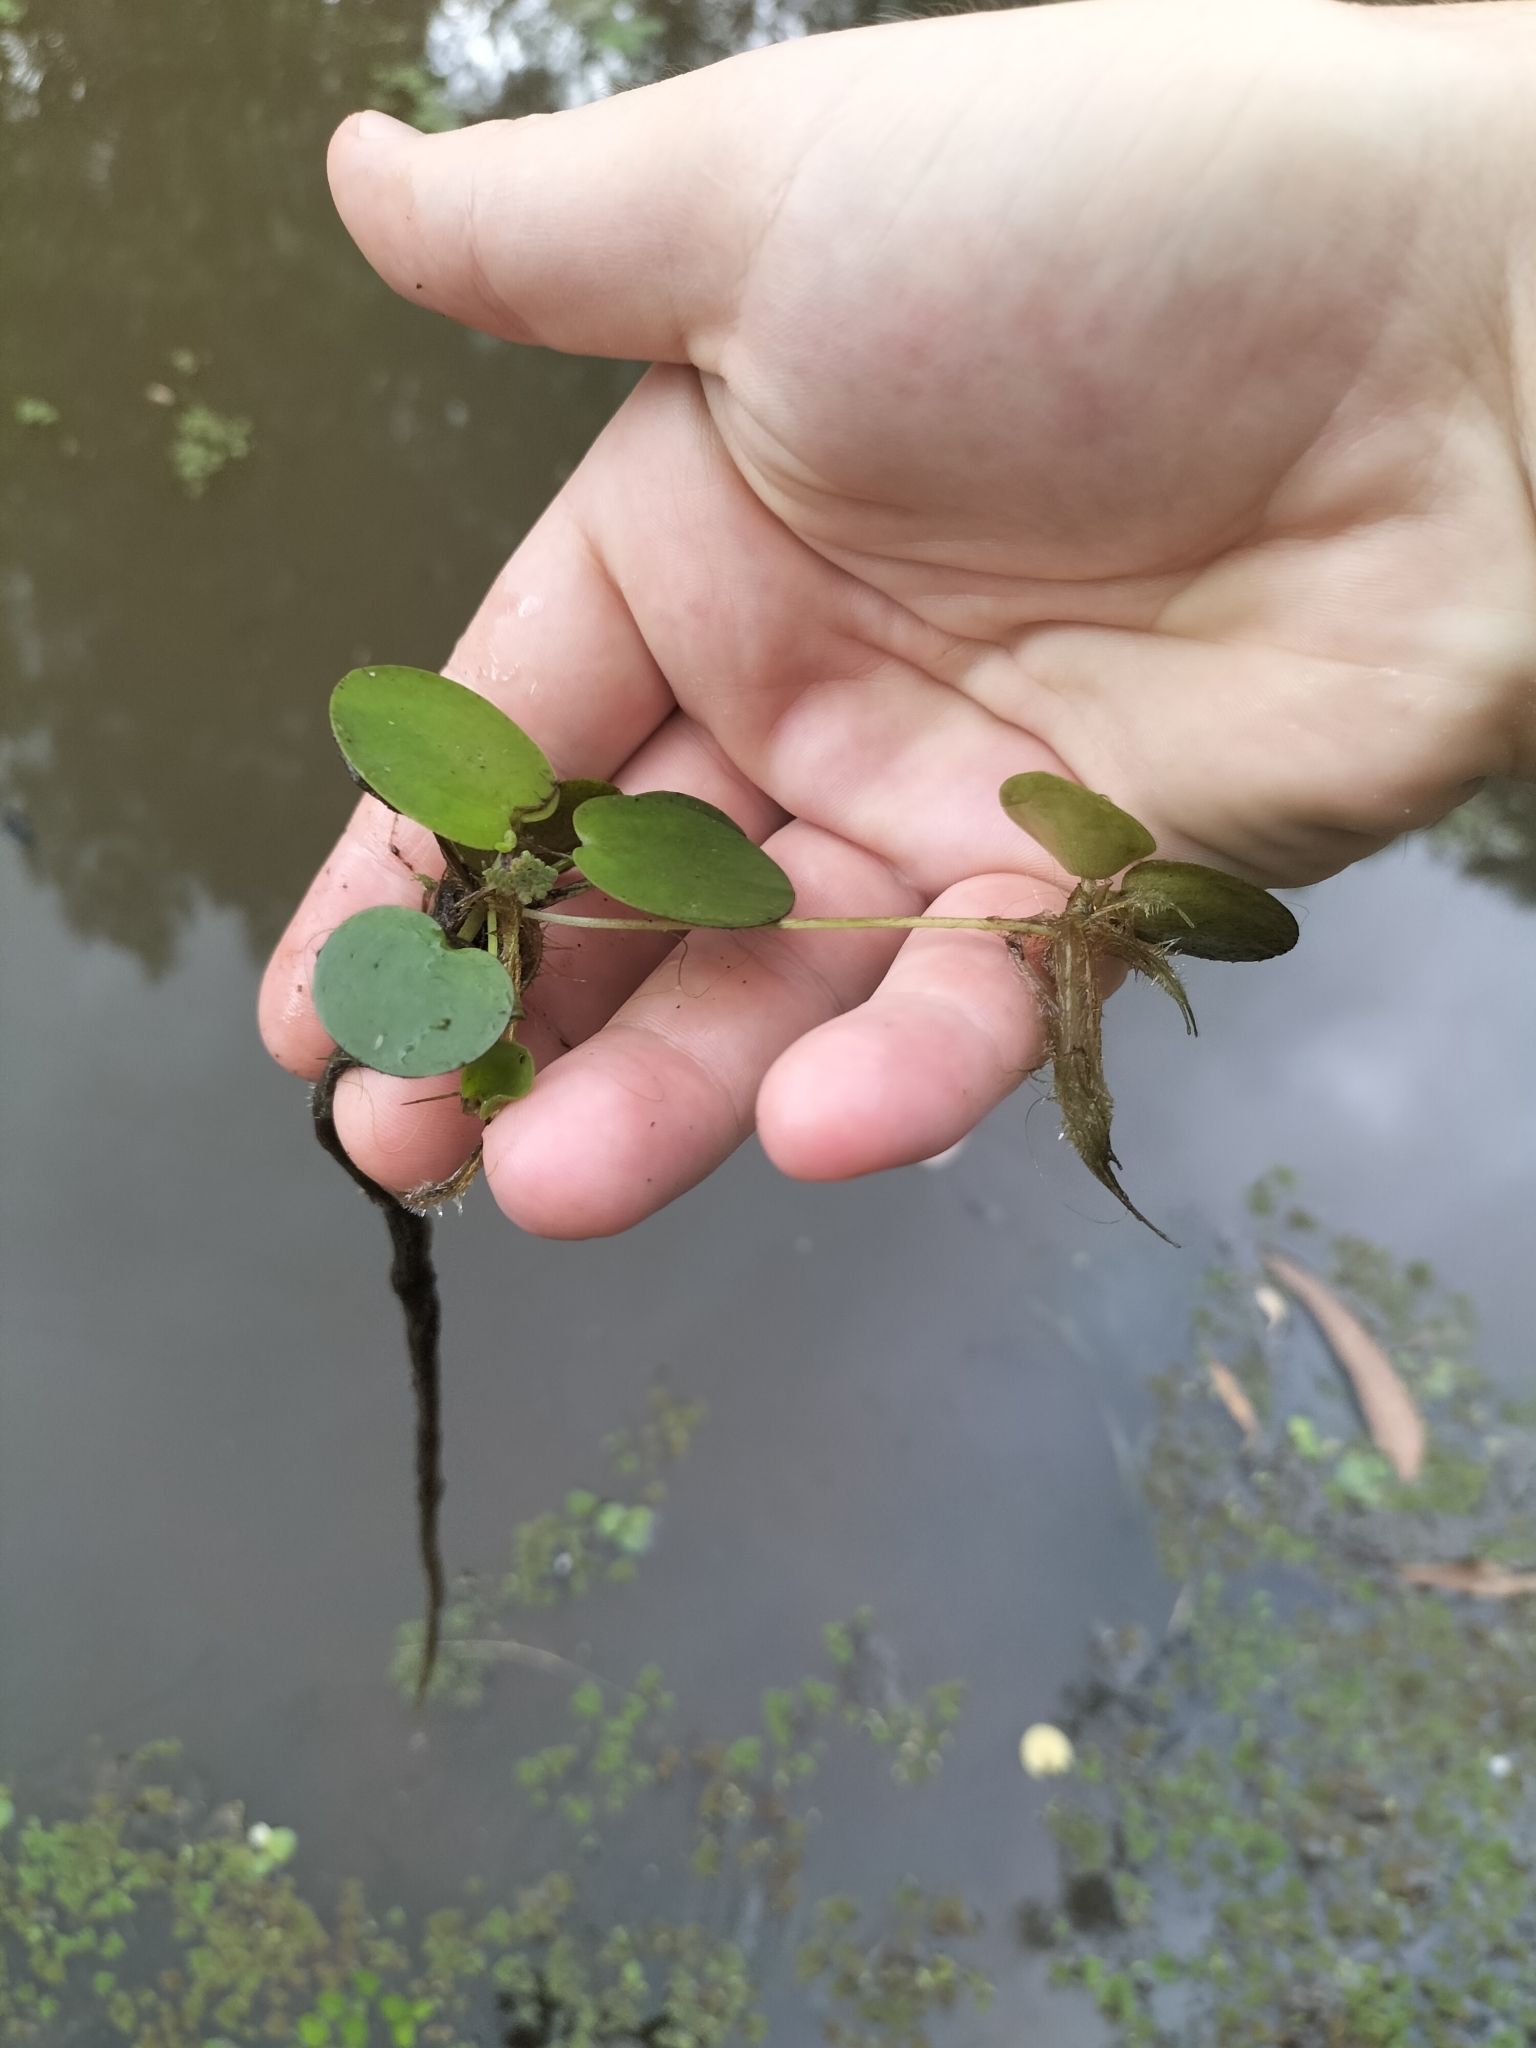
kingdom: Plantae
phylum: Tracheophyta
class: Liliopsida
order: Alismatales
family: Hydrocharitaceae
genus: Hydrocharis
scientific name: Hydrocharis laevigata
